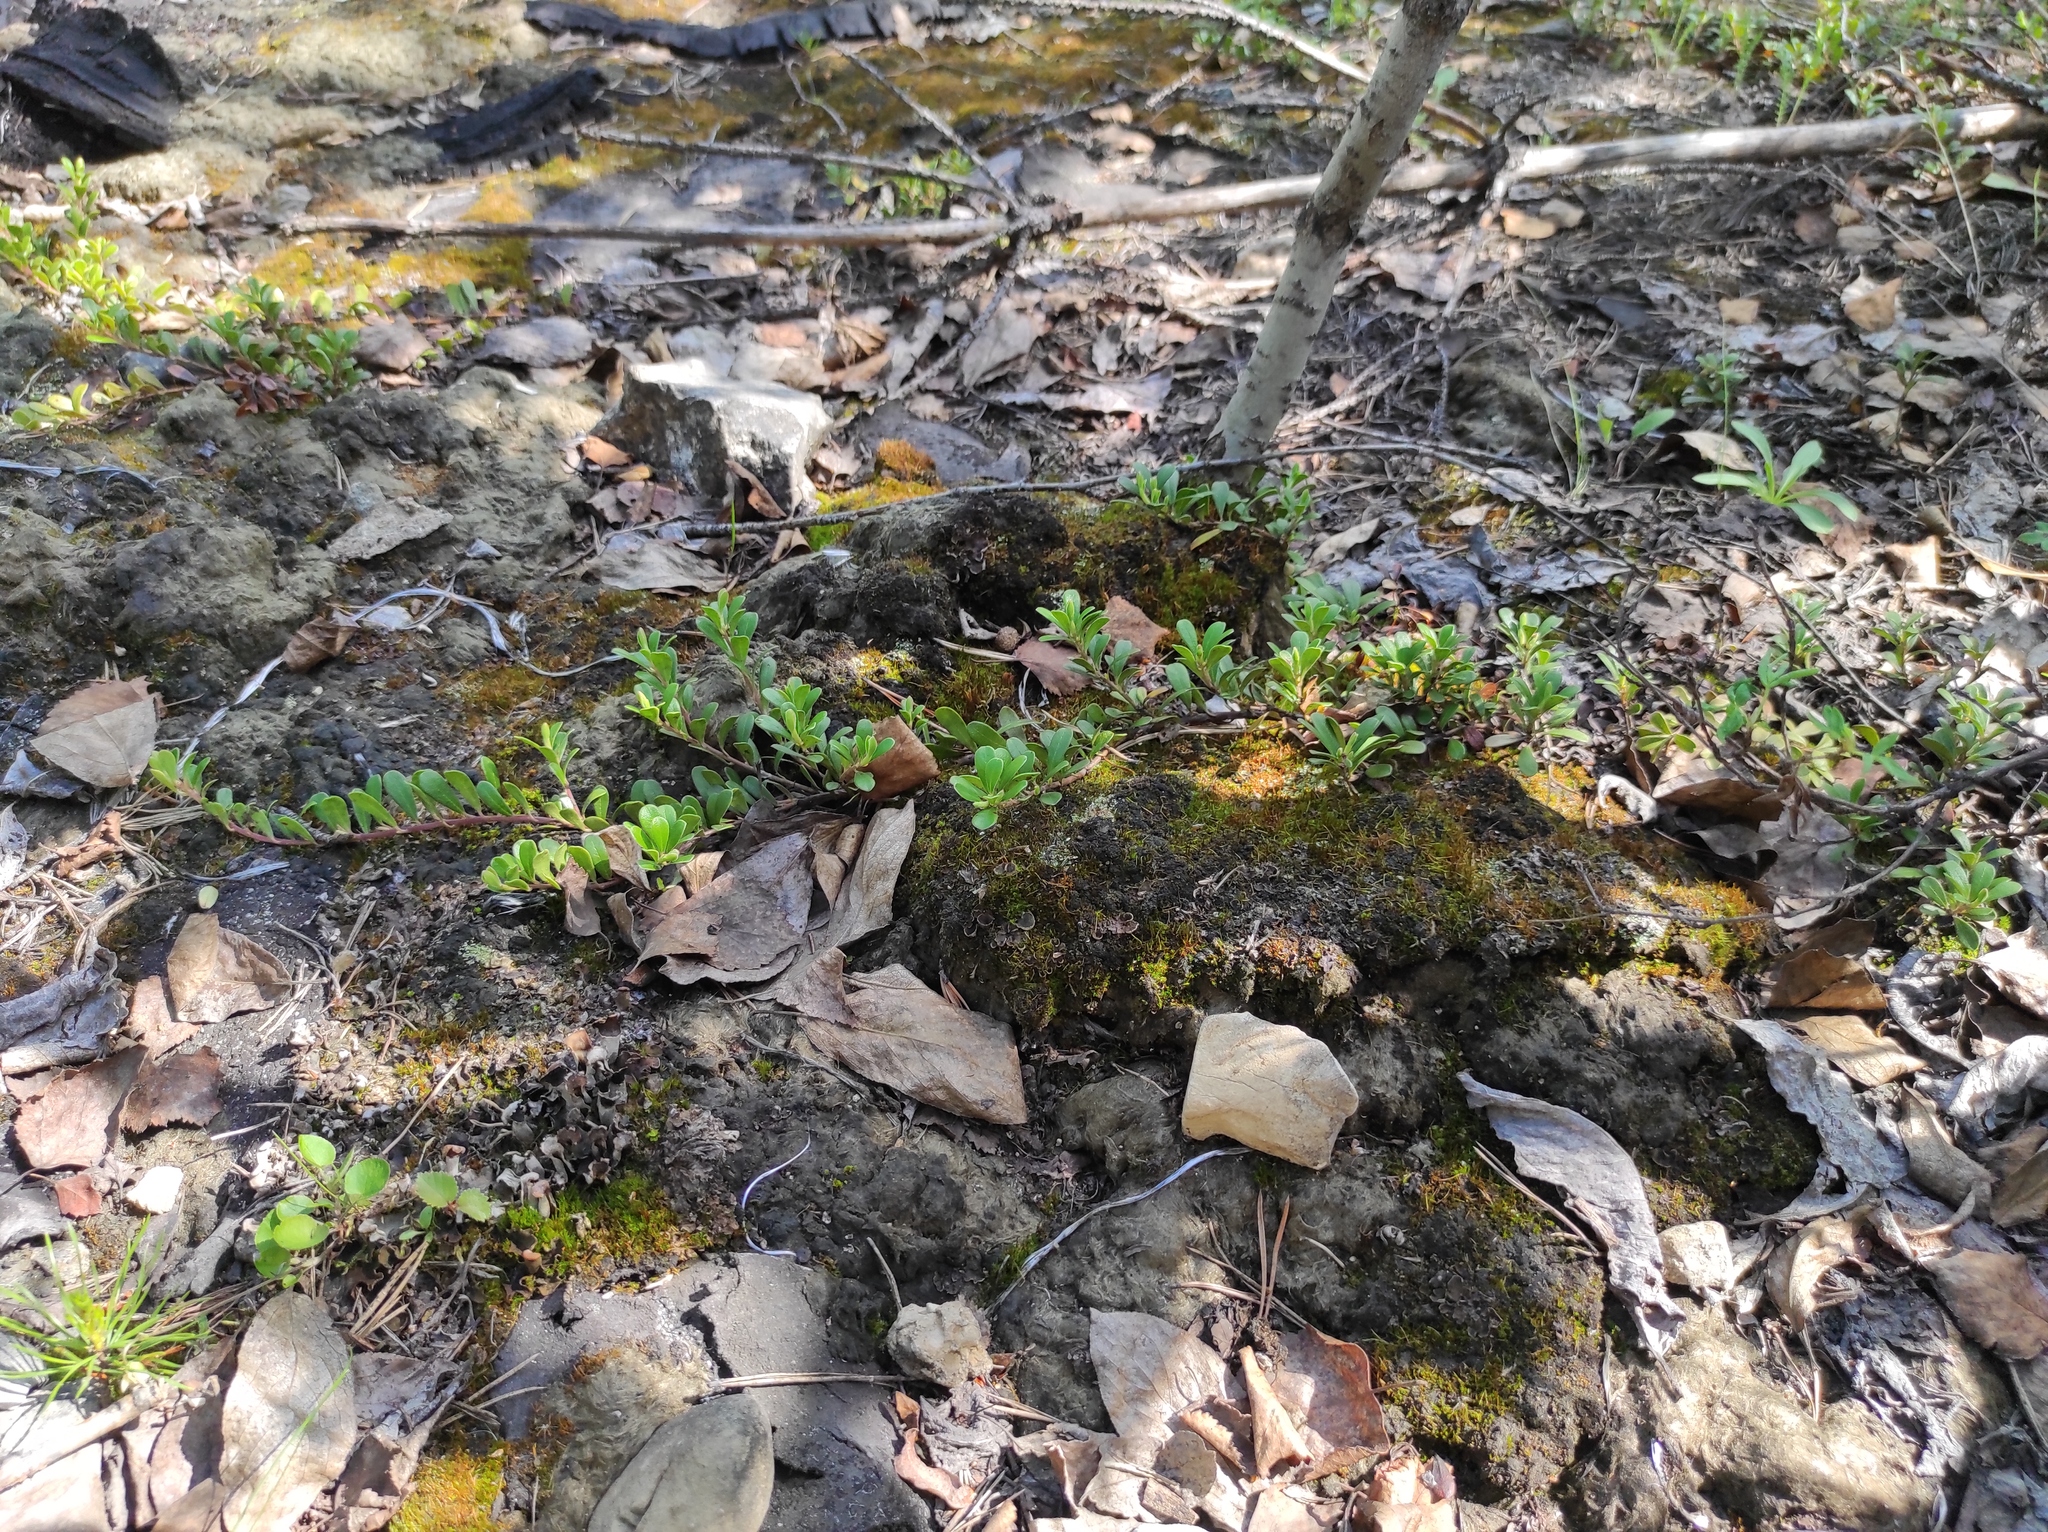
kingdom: Plantae
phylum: Tracheophyta
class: Magnoliopsida
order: Ericales
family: Ericaceae
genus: Arctostaphylos
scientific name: Arctostaphylos uva-ursi
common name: Bearberry
